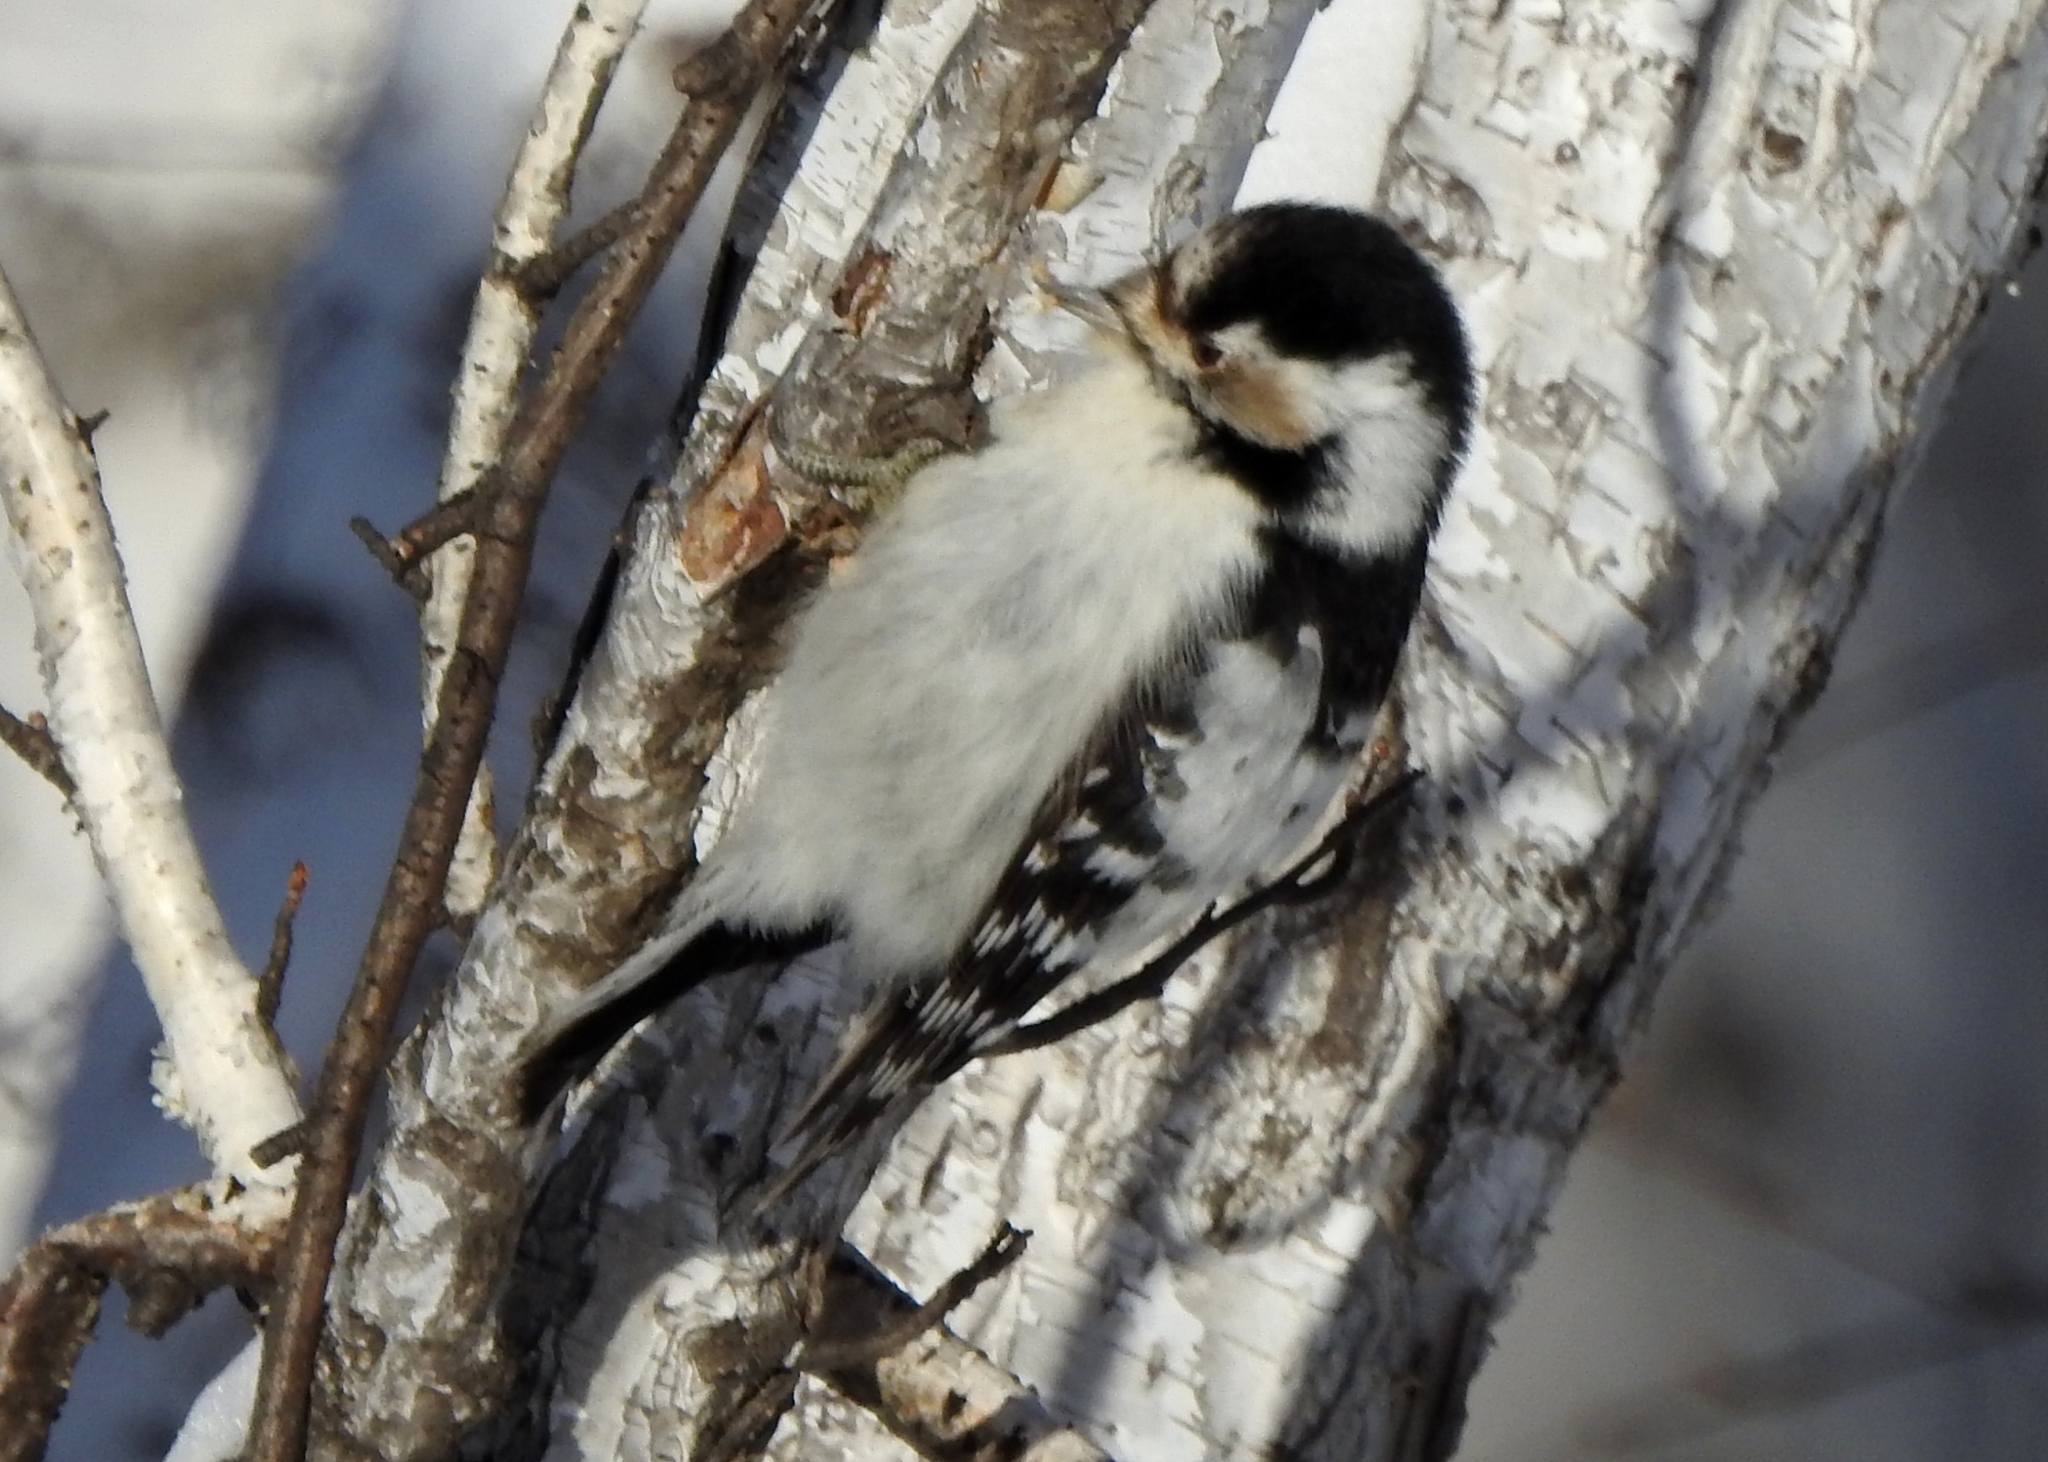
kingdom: Animalia
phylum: Chordata
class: Aves
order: Piciformes
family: Picidae
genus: Dryobates
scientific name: Dryobates minor
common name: Lesser spotted woodpecker
